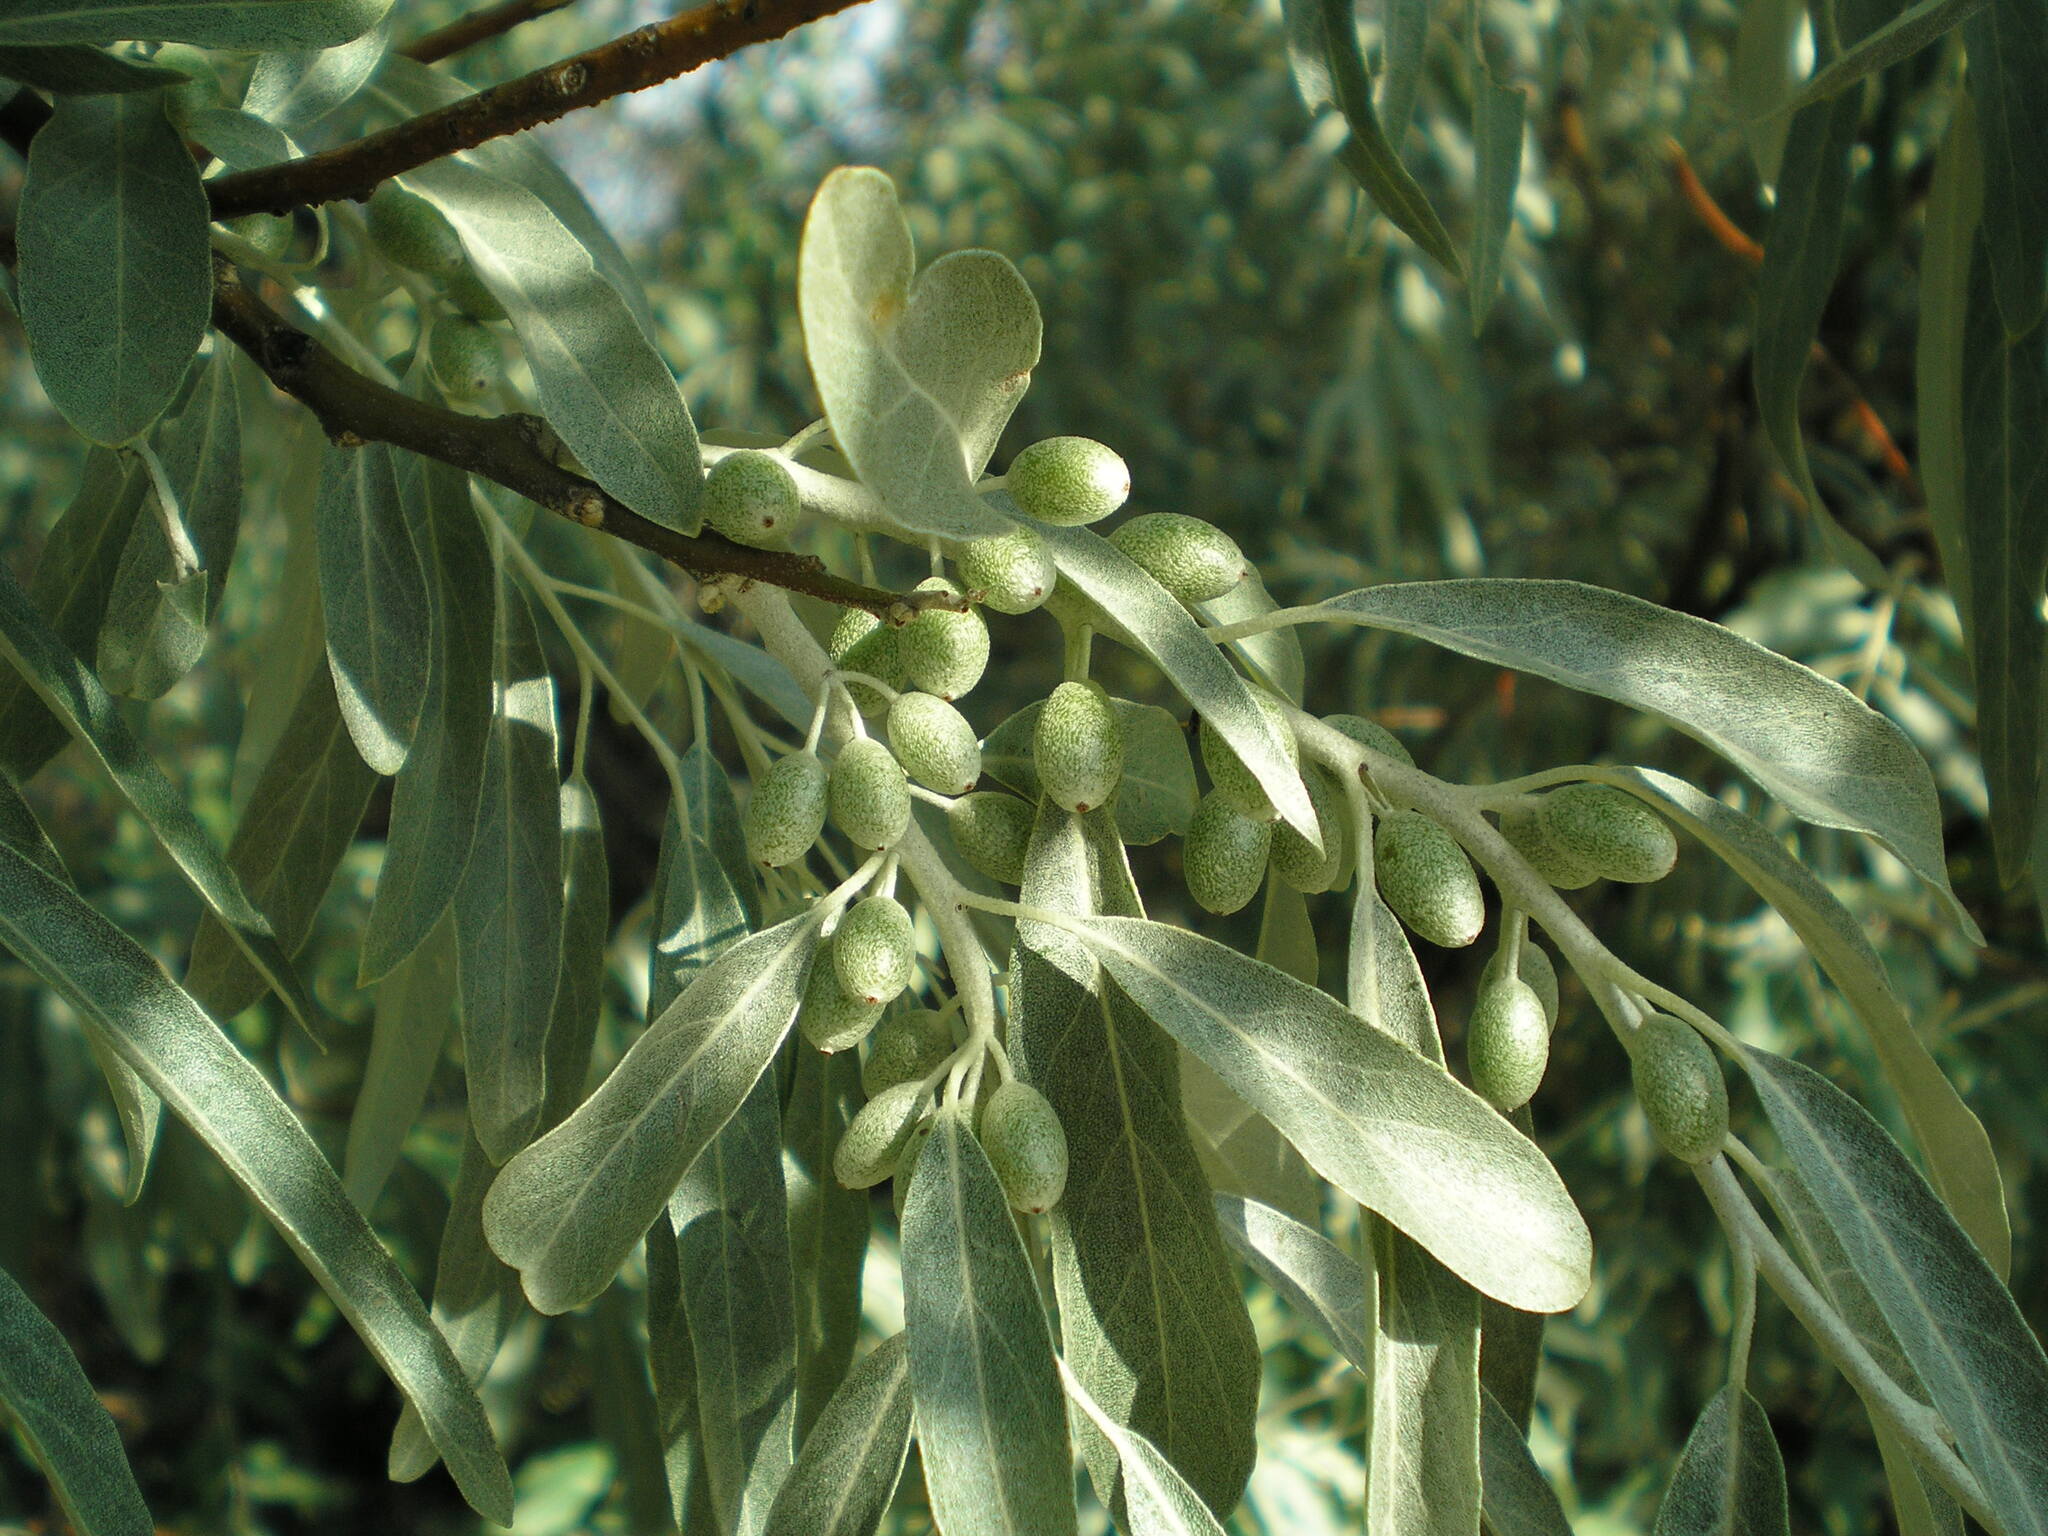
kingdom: Plantae
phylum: Tracheophyta
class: Magnoliopsida
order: Rosales
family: Elaeagnaceae
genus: Elaeagnus
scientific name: Elaeagnus angustifolia
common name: Russian olive
